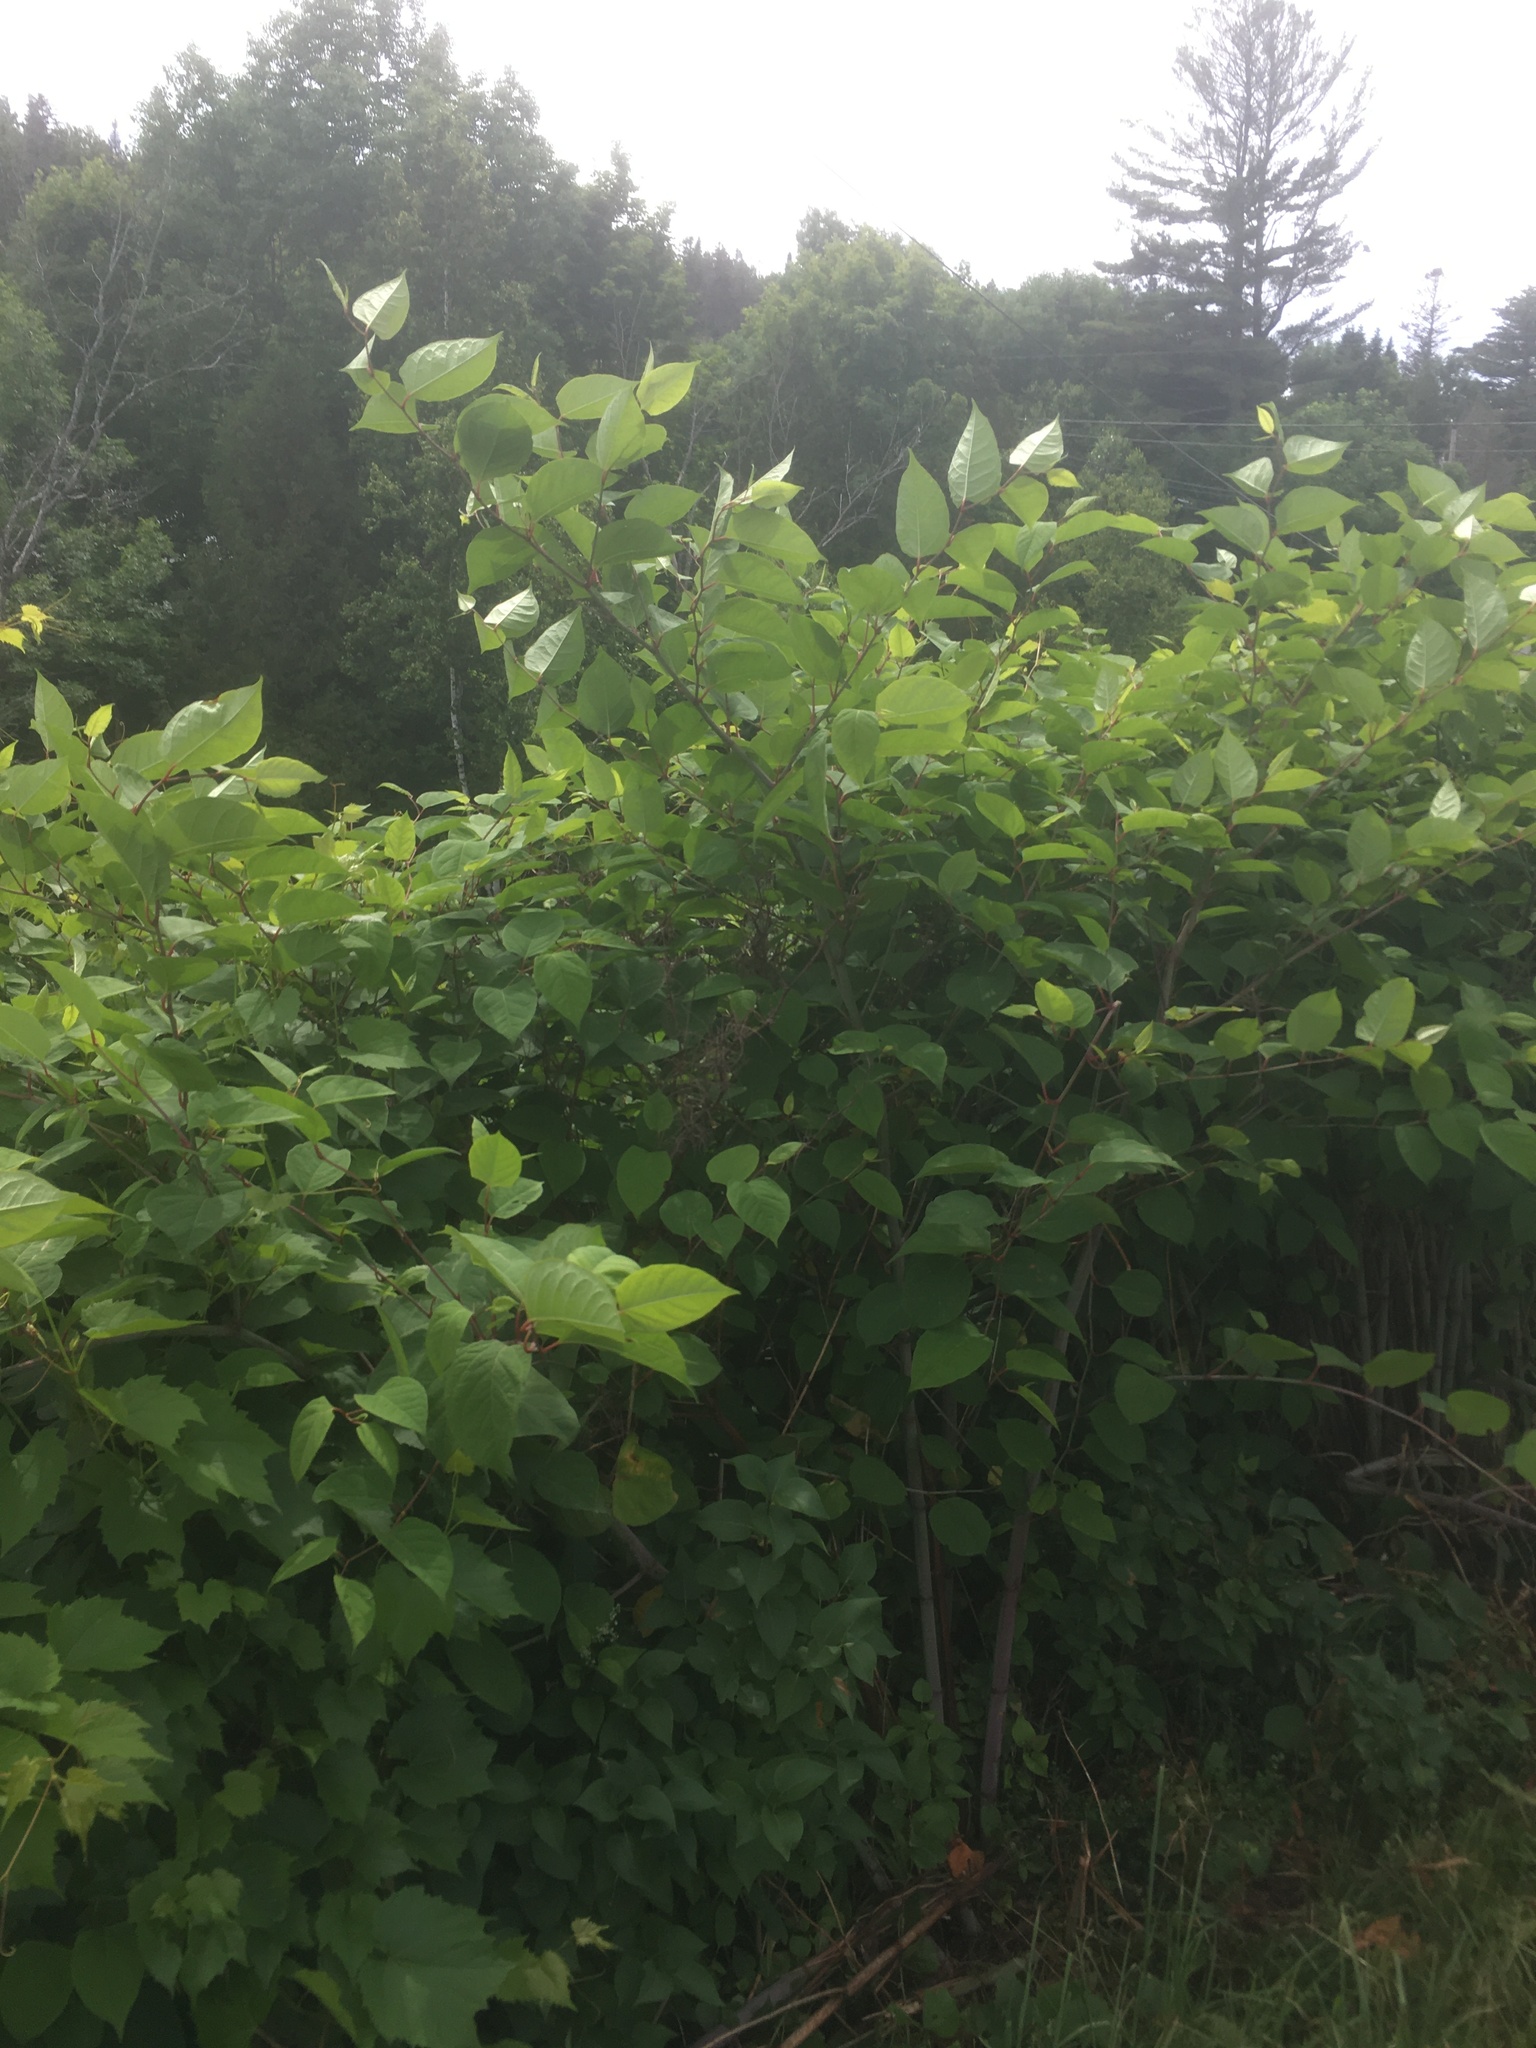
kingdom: Plantae
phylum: Tracheophyta
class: Magnoliopsida
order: Caryophyllales
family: Polygonaceae
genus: Reynoutria
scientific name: Reynoutria japonica
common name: Japanese knotweed
